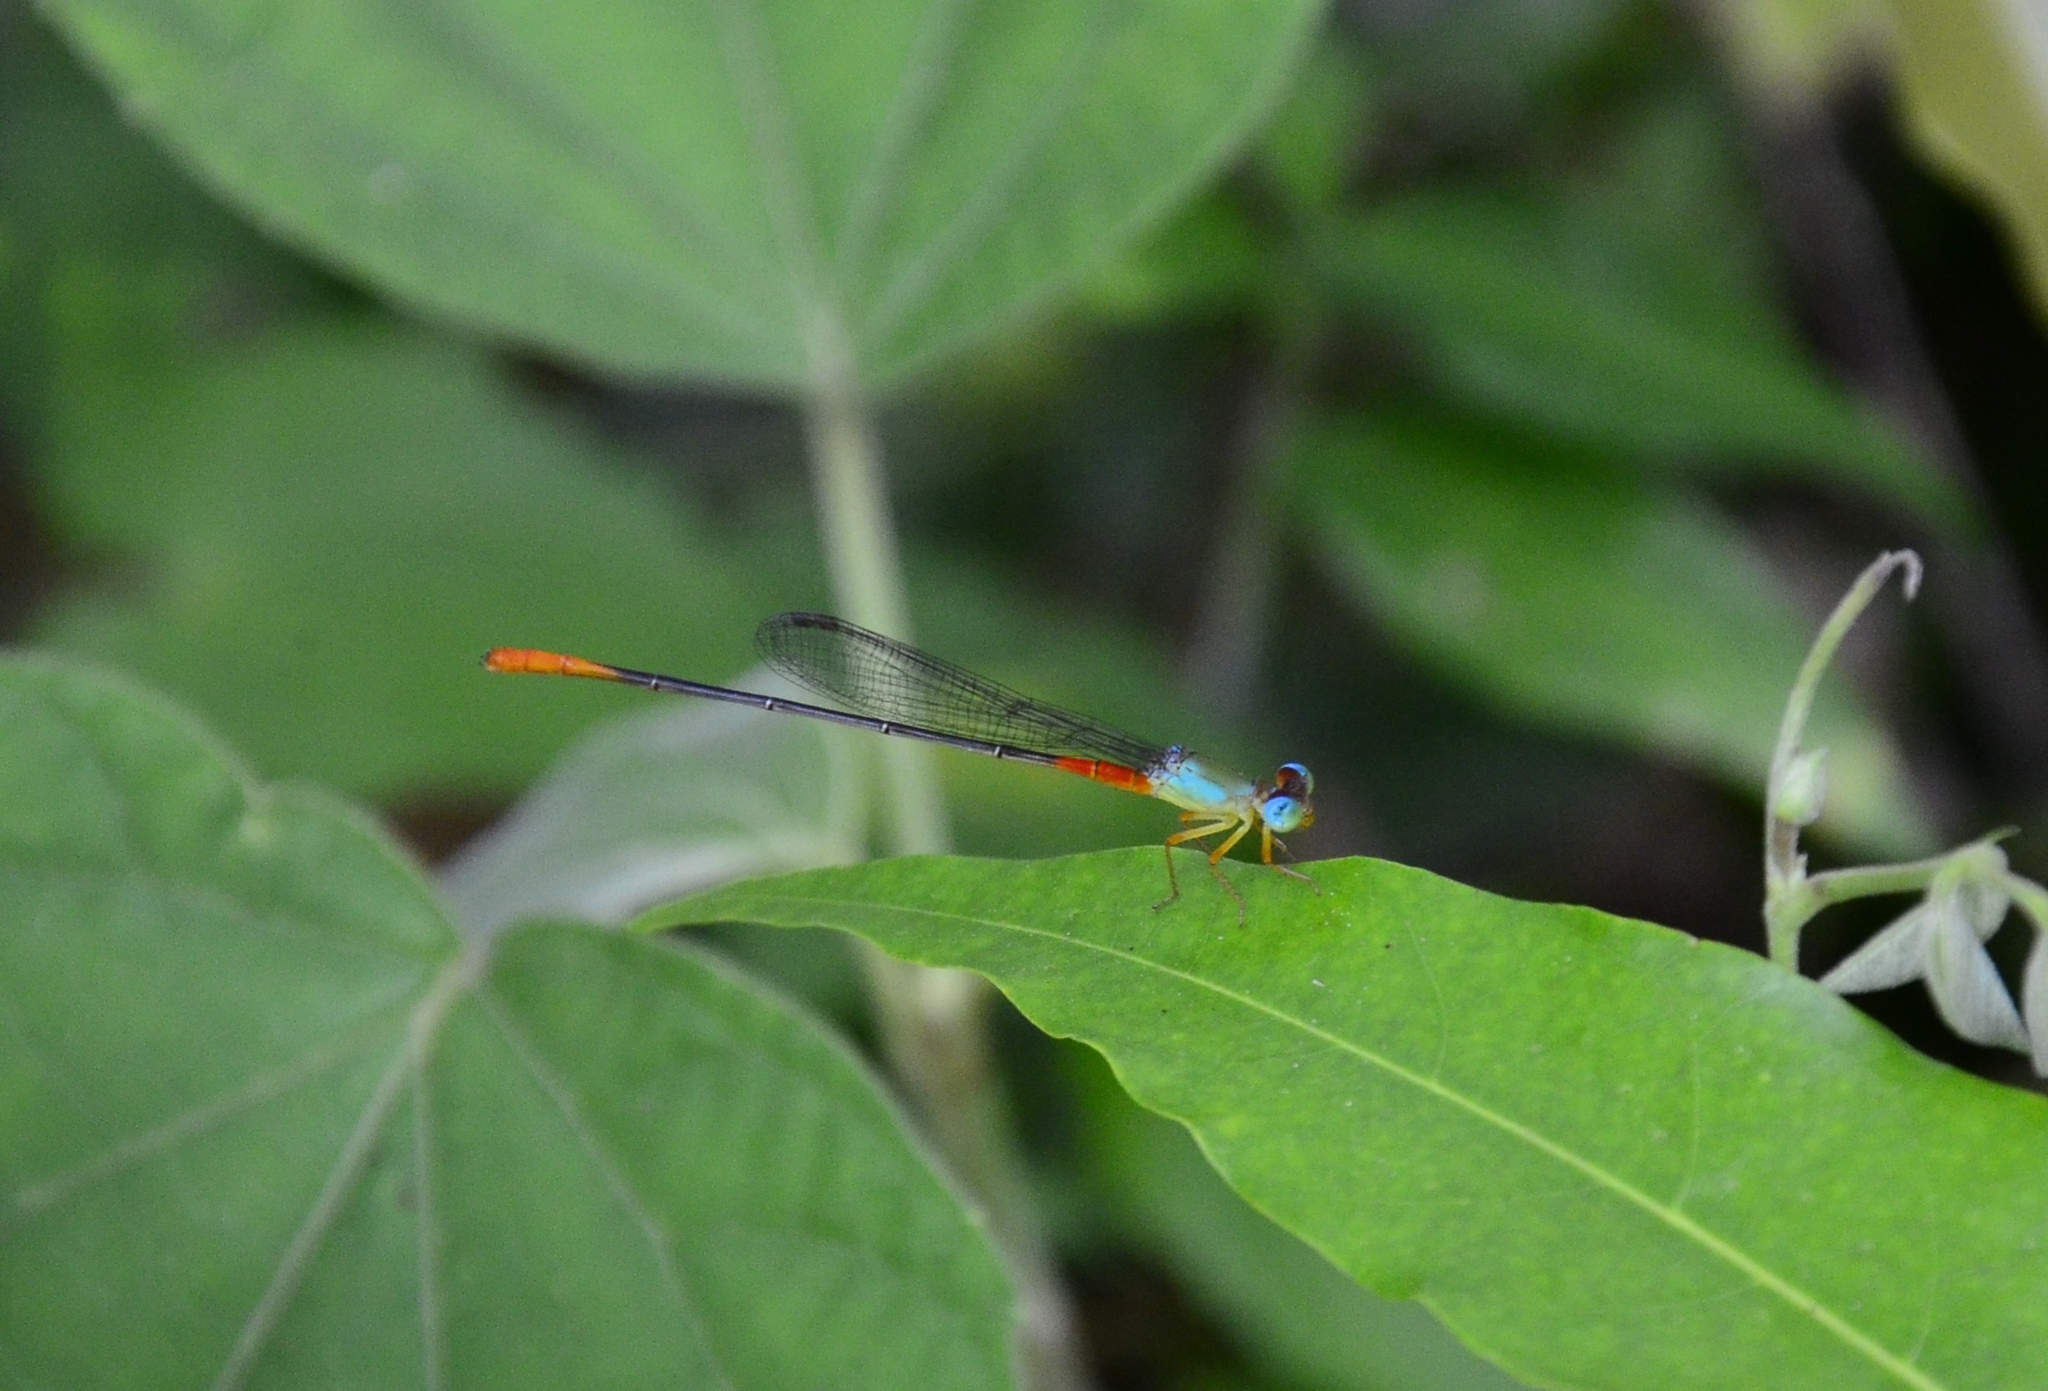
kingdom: Animalia
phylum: Arthropoda
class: Insecta
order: Odonata
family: Coenagrionidae
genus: Ceriagrion
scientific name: Ceriagrion cerinorubellum
